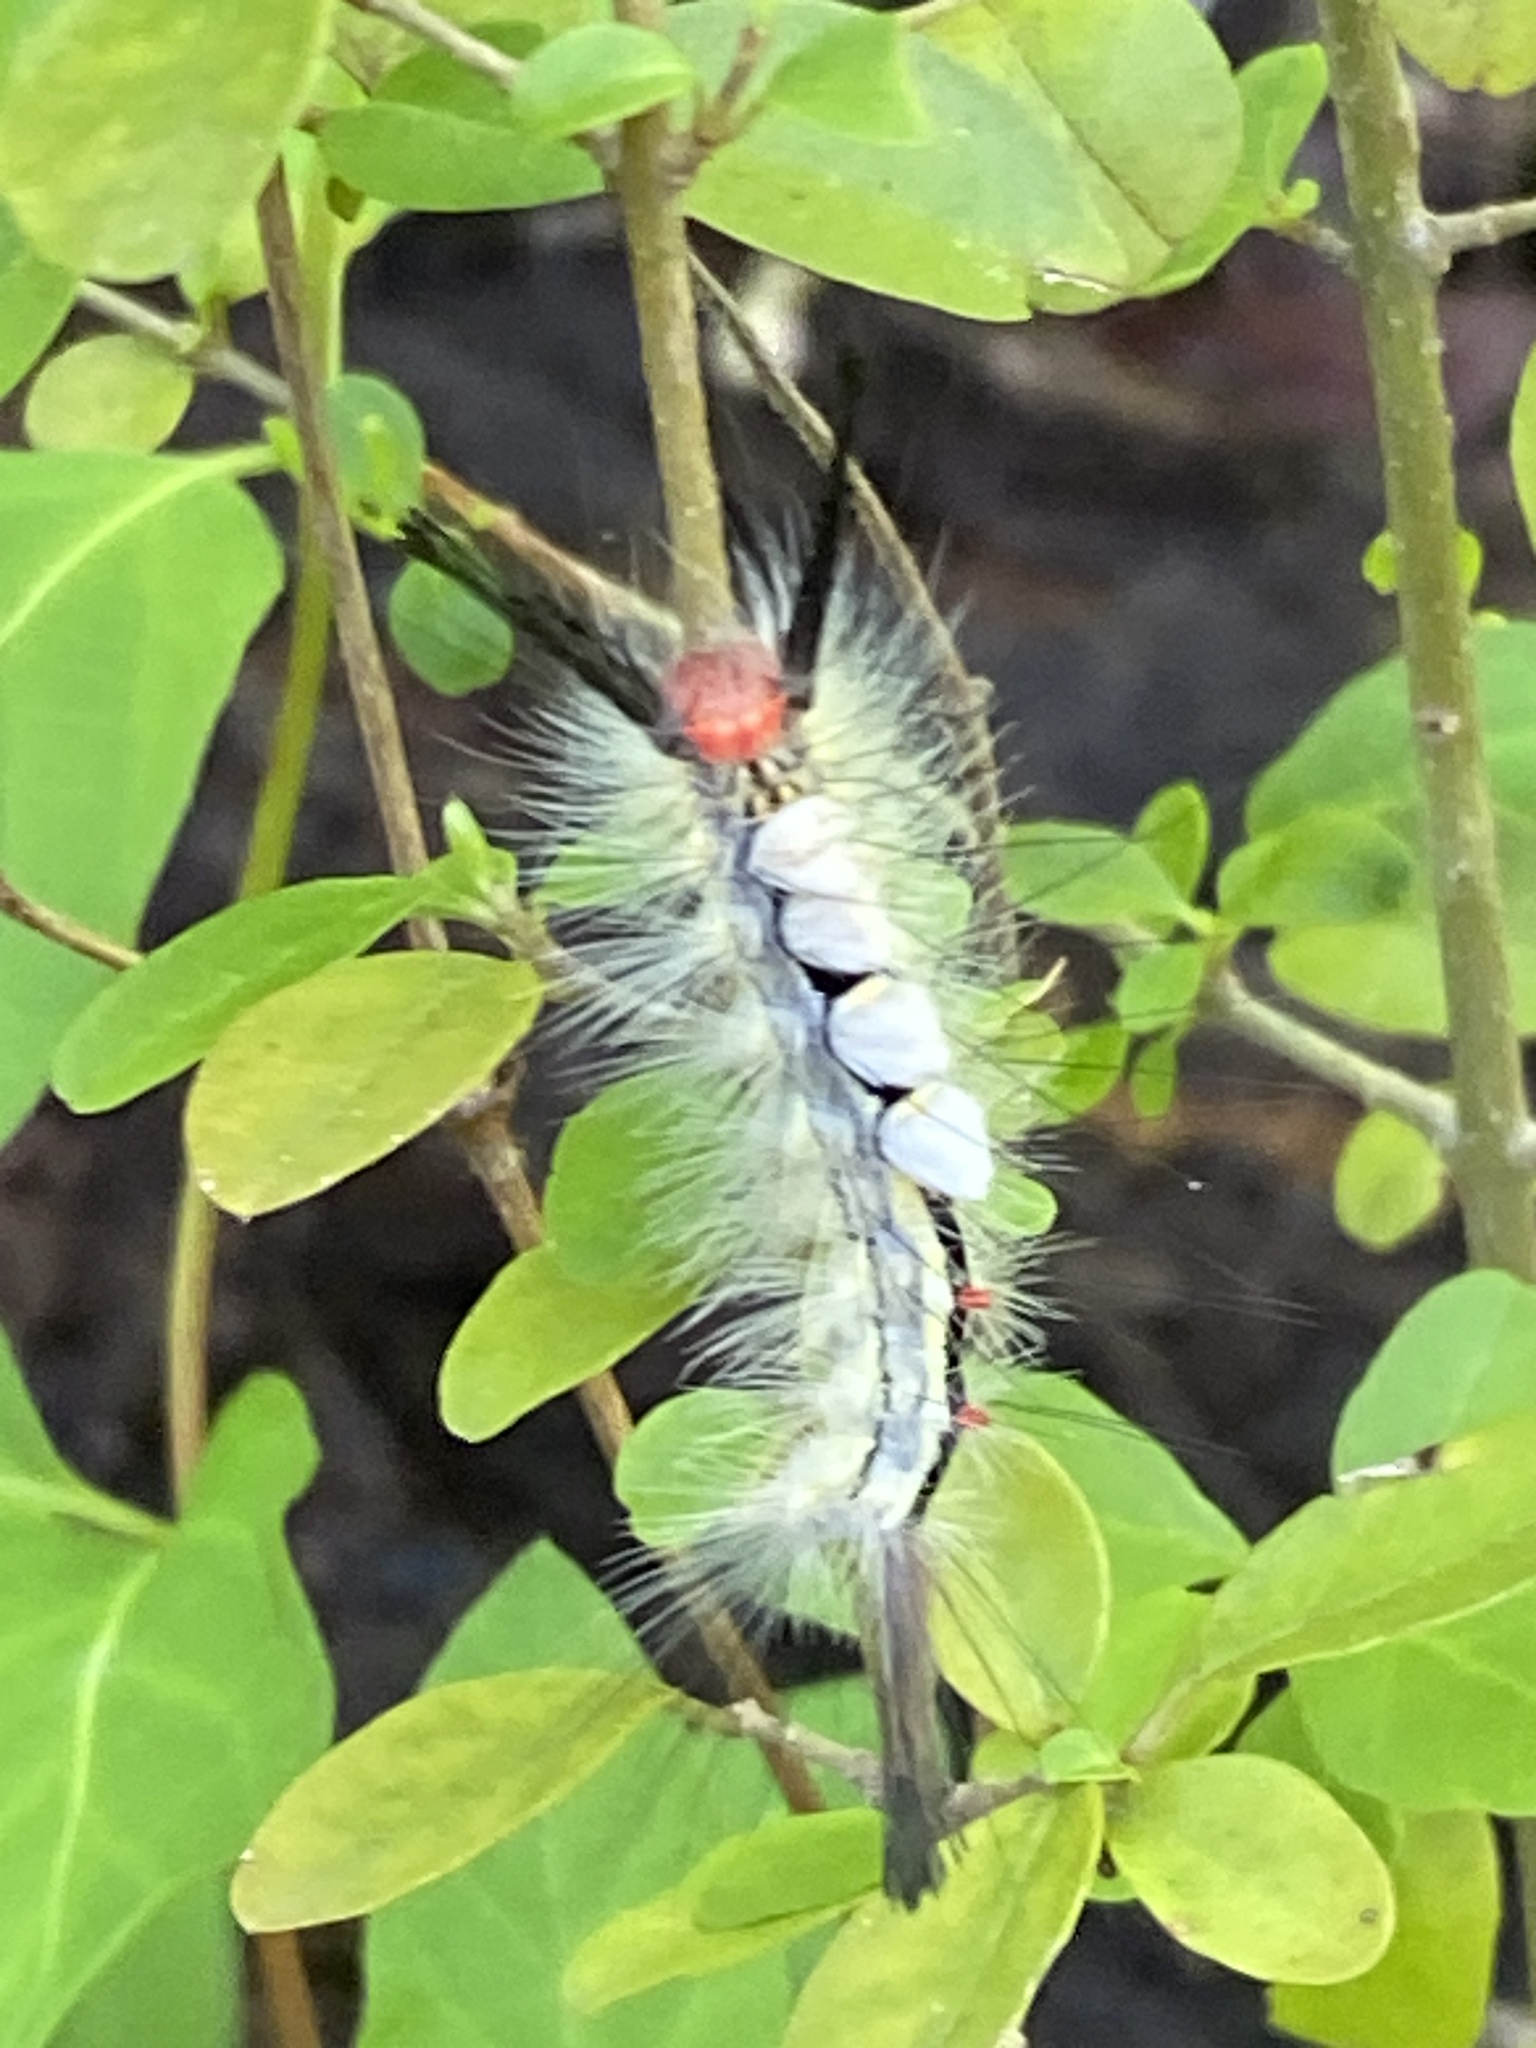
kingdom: Animalia
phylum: Arthropoda
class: Insecta
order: Lepidoptera
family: Erebidae
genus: Orgyia
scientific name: Orgyia leucostigma
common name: White-marked tussock moth
